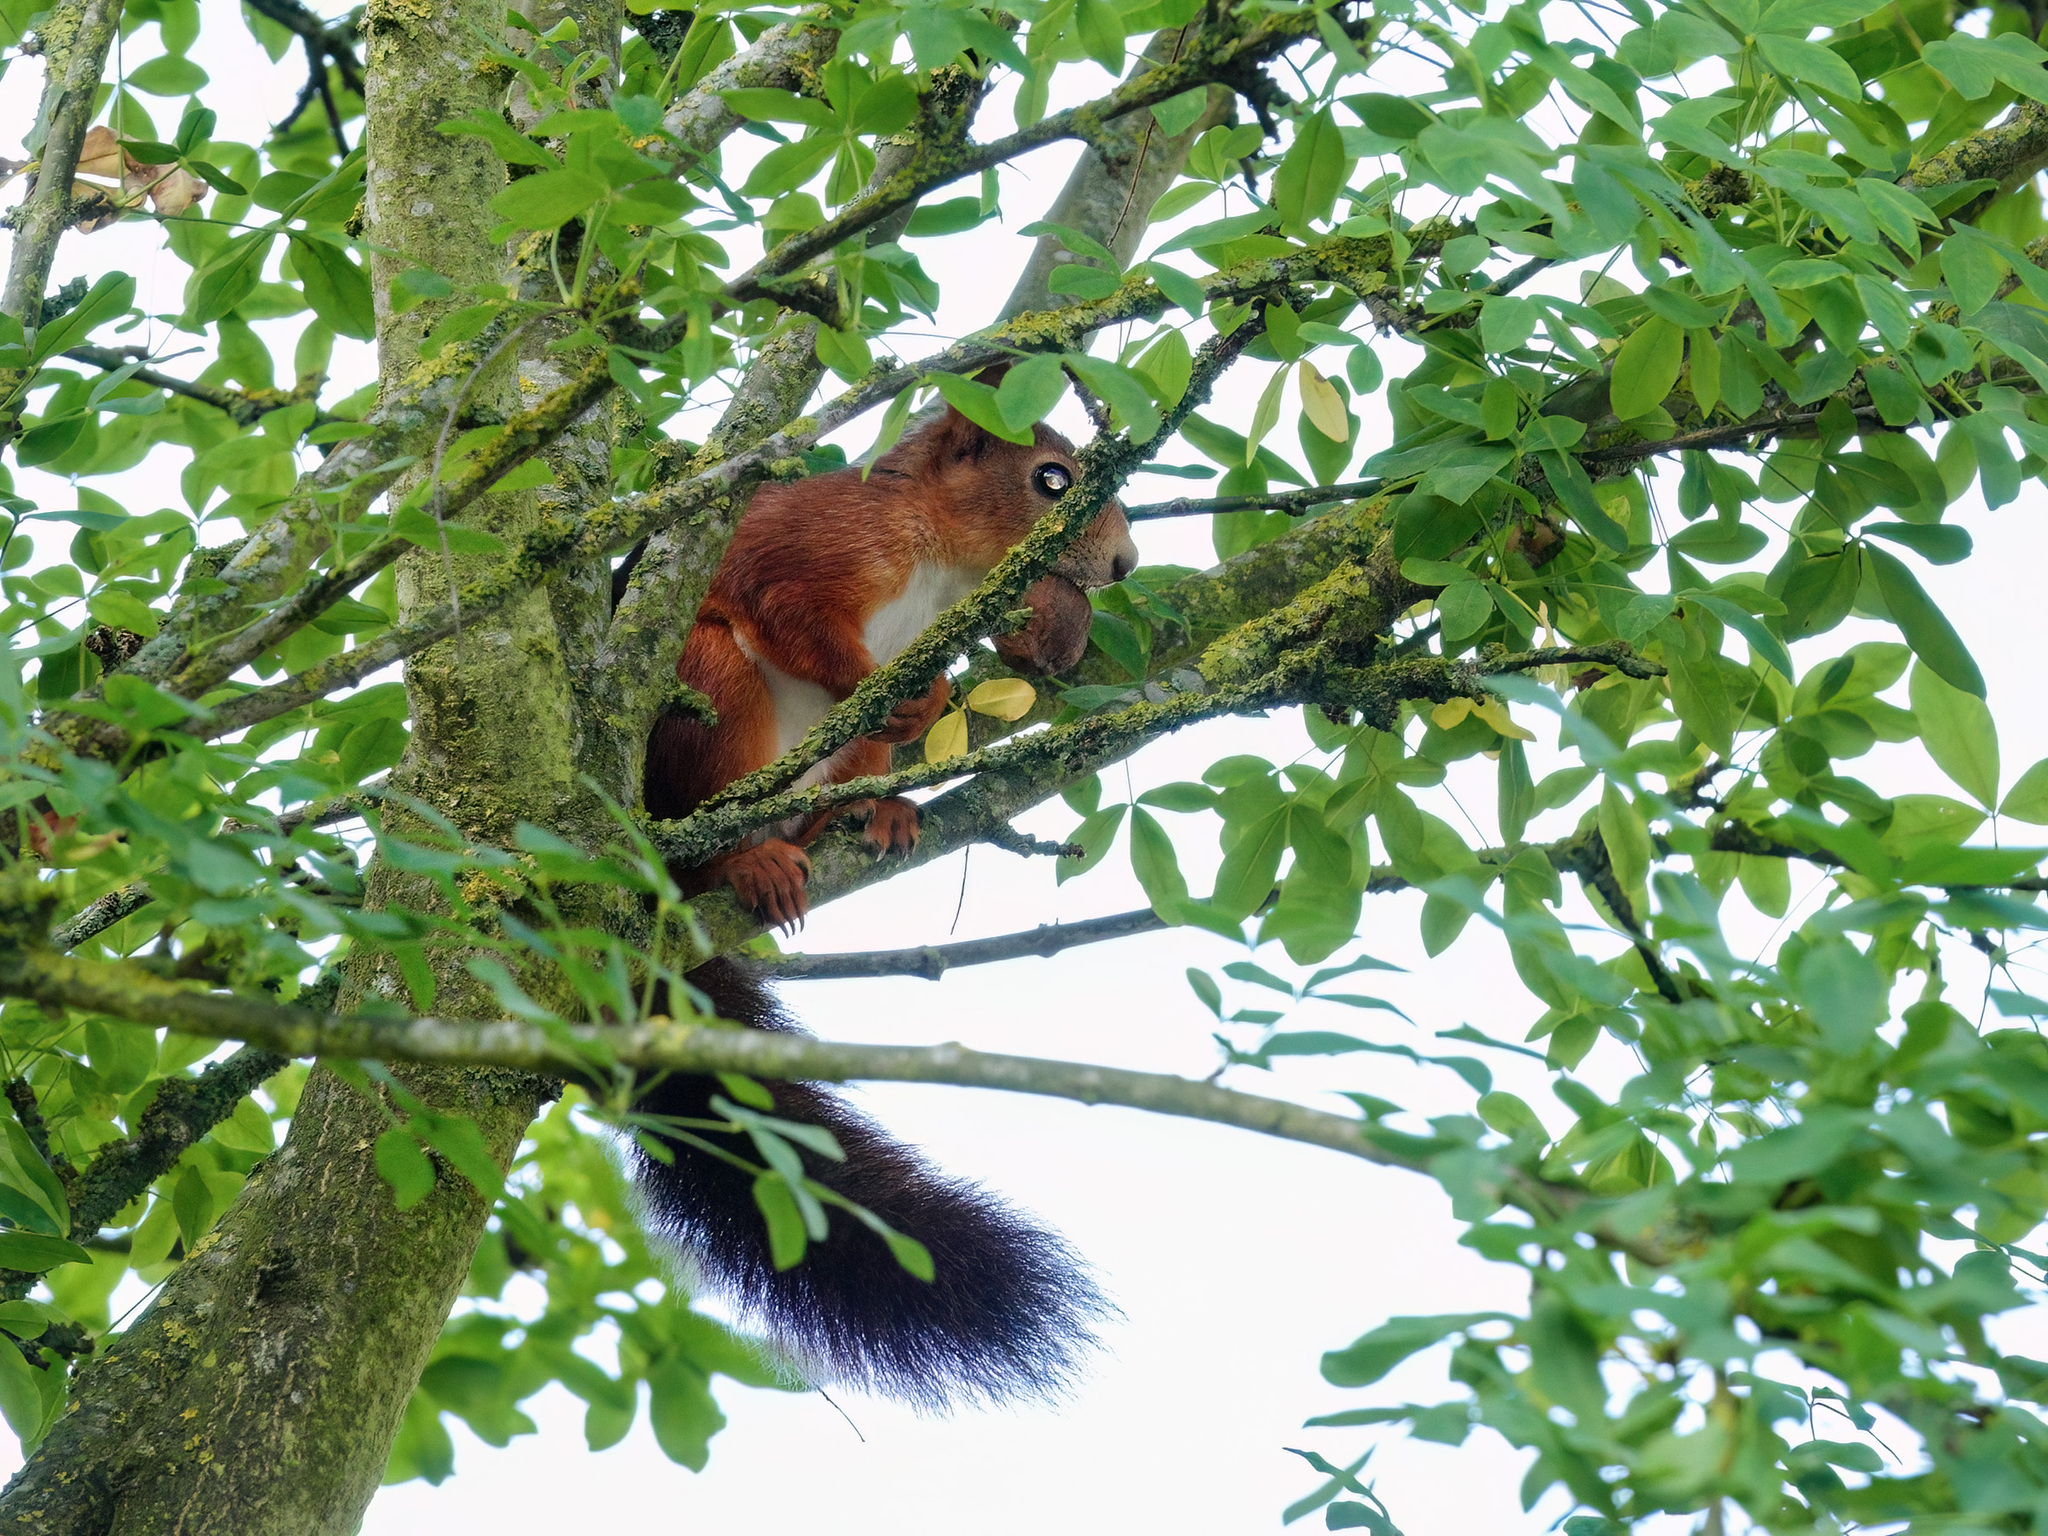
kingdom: Animalia
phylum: Chordata
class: Mammalia
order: Rodentia
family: Sciuridae
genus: Sciurus
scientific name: Sciurus vulgaris
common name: Eurasian red squirrel
